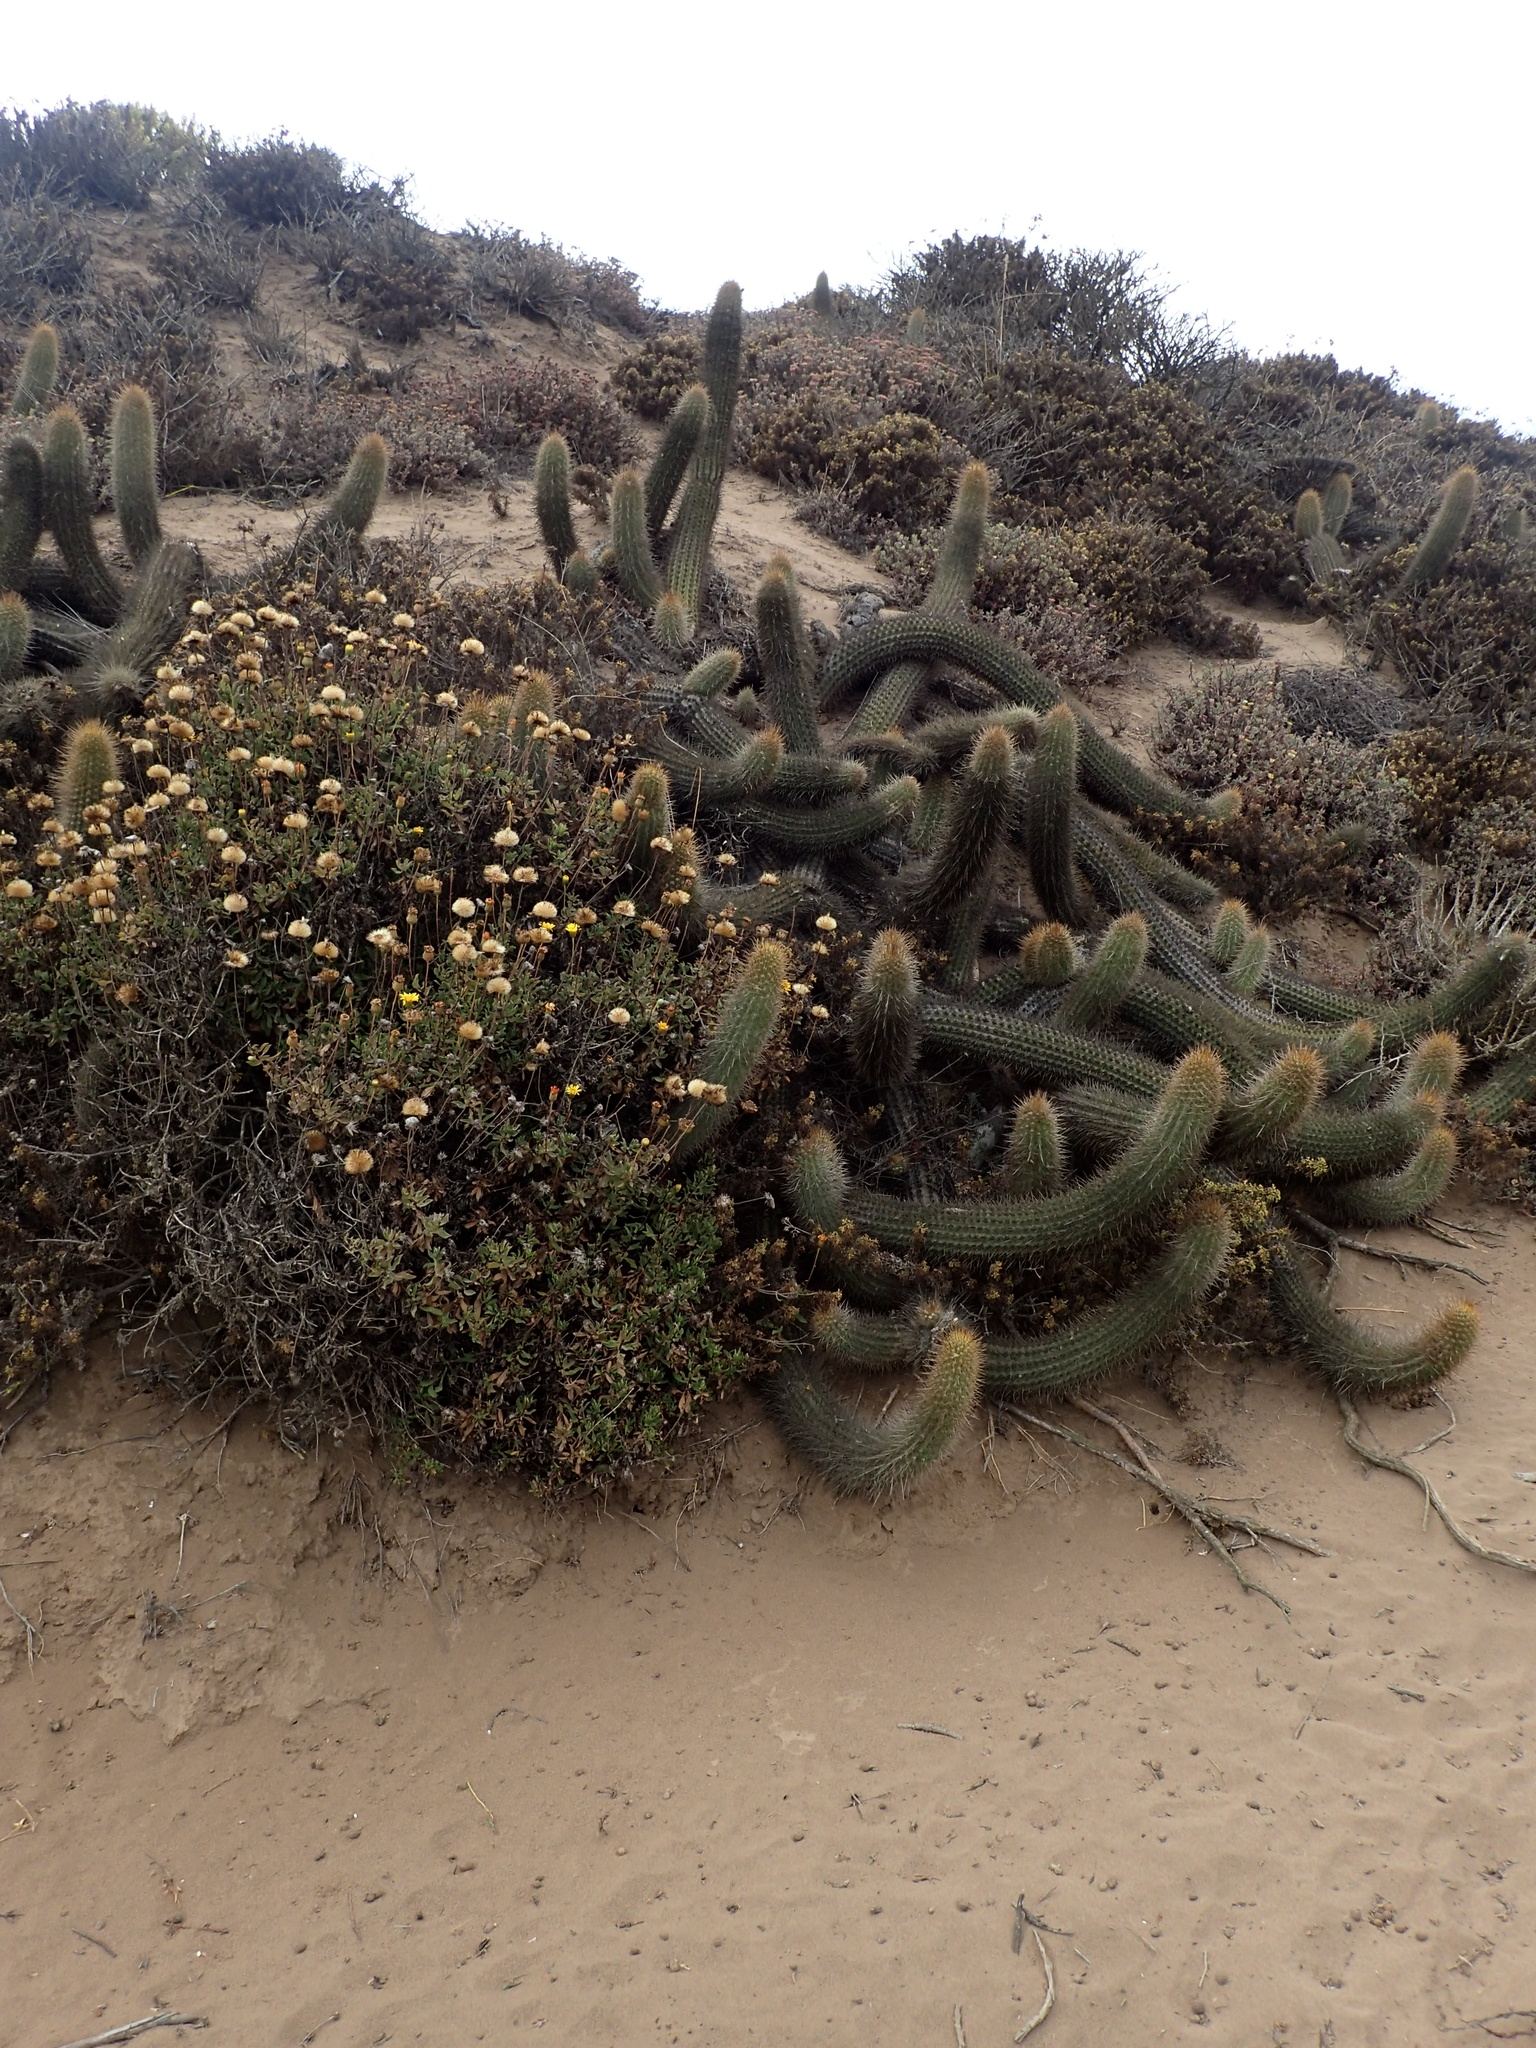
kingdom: Plantae
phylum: Tracheophyta
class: Magnoliopsida
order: Caryophyllales
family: Cactaceae
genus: Leucostele
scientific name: Leucostele litoralis
